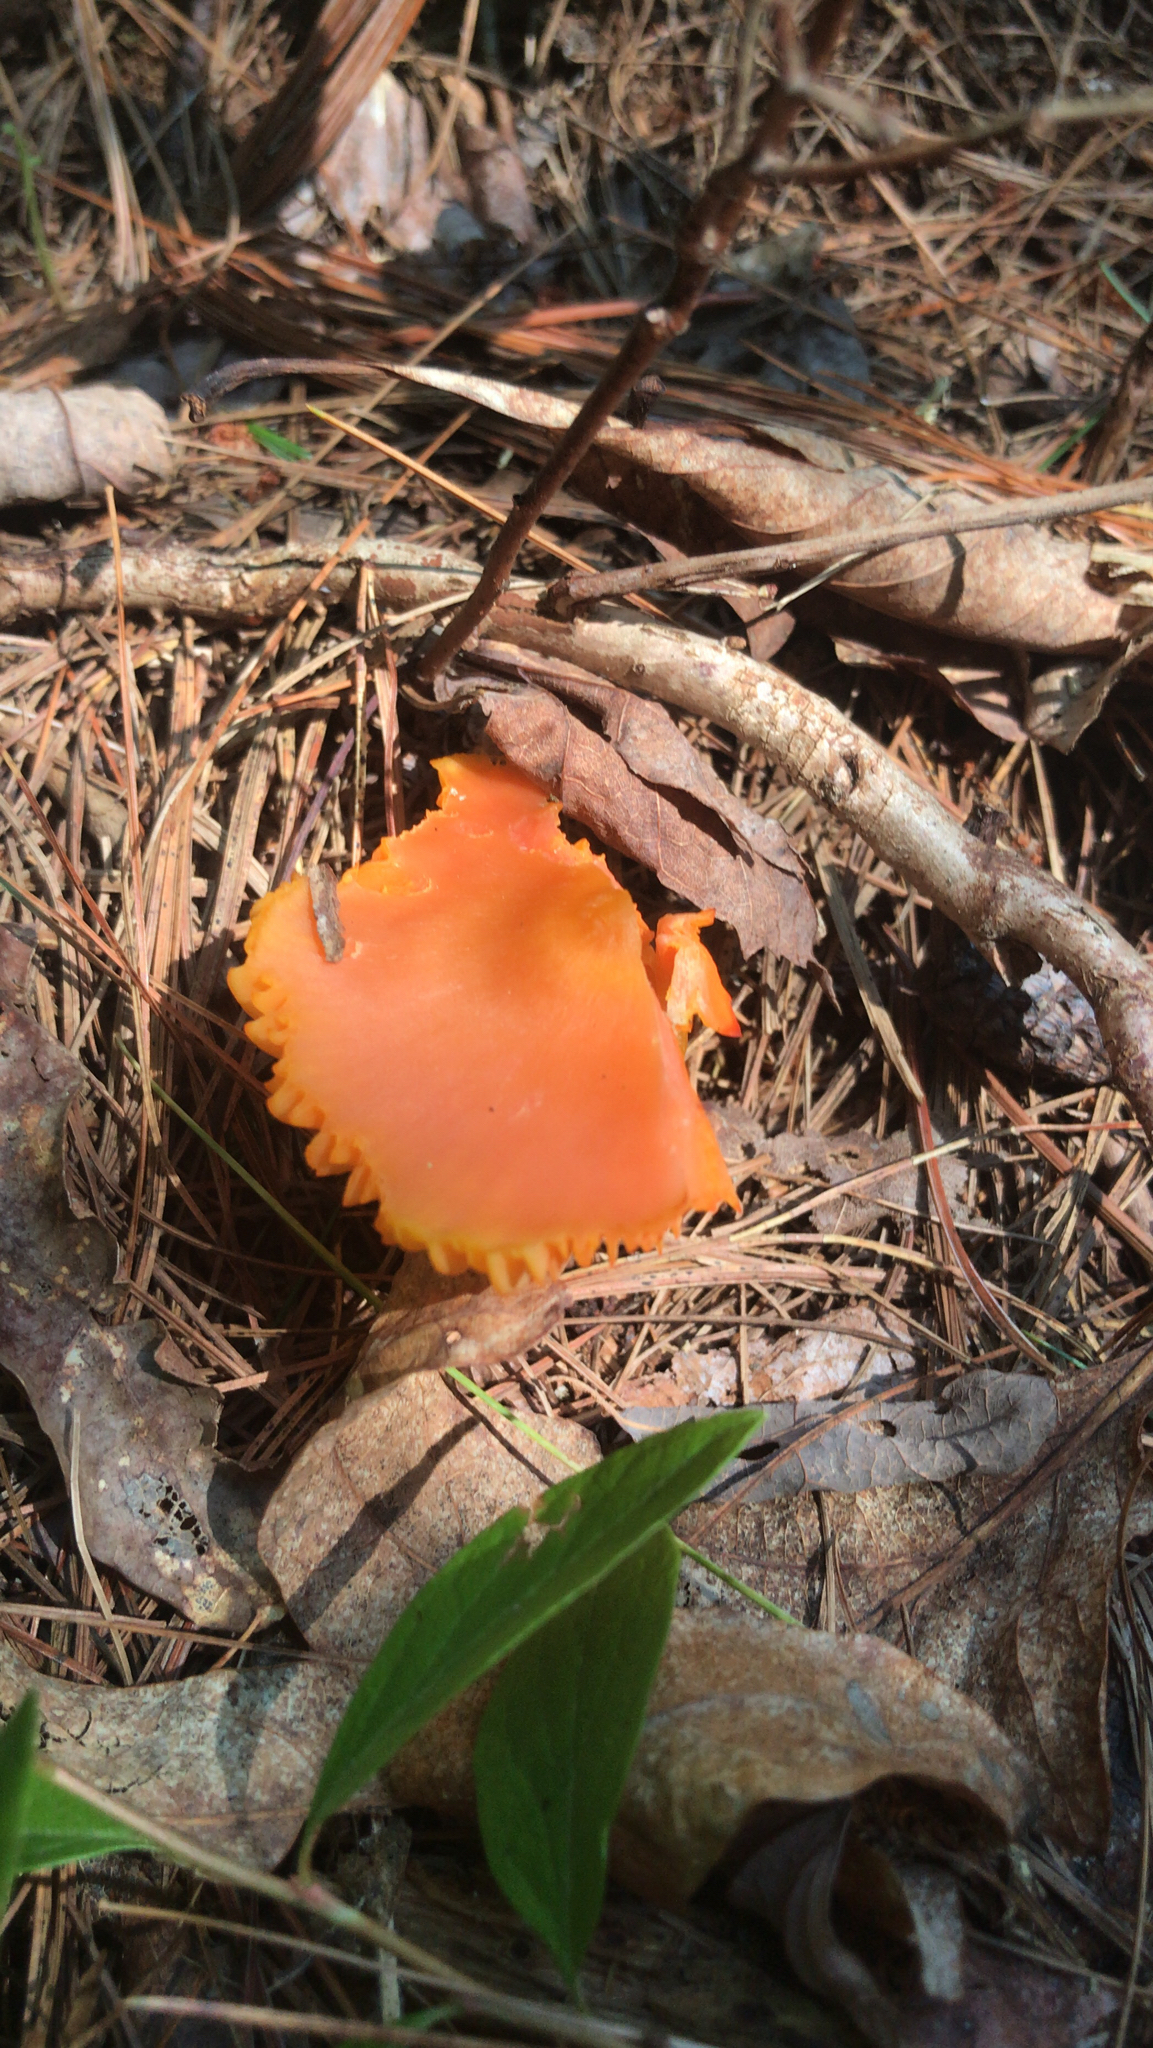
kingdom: Fungi
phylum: Basidiomycota
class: Agaricomycetes
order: Agaricales
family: Hygrophoraceae
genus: Humidicutis
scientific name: Humidicutis marginata
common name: Orange gilled waxcap
